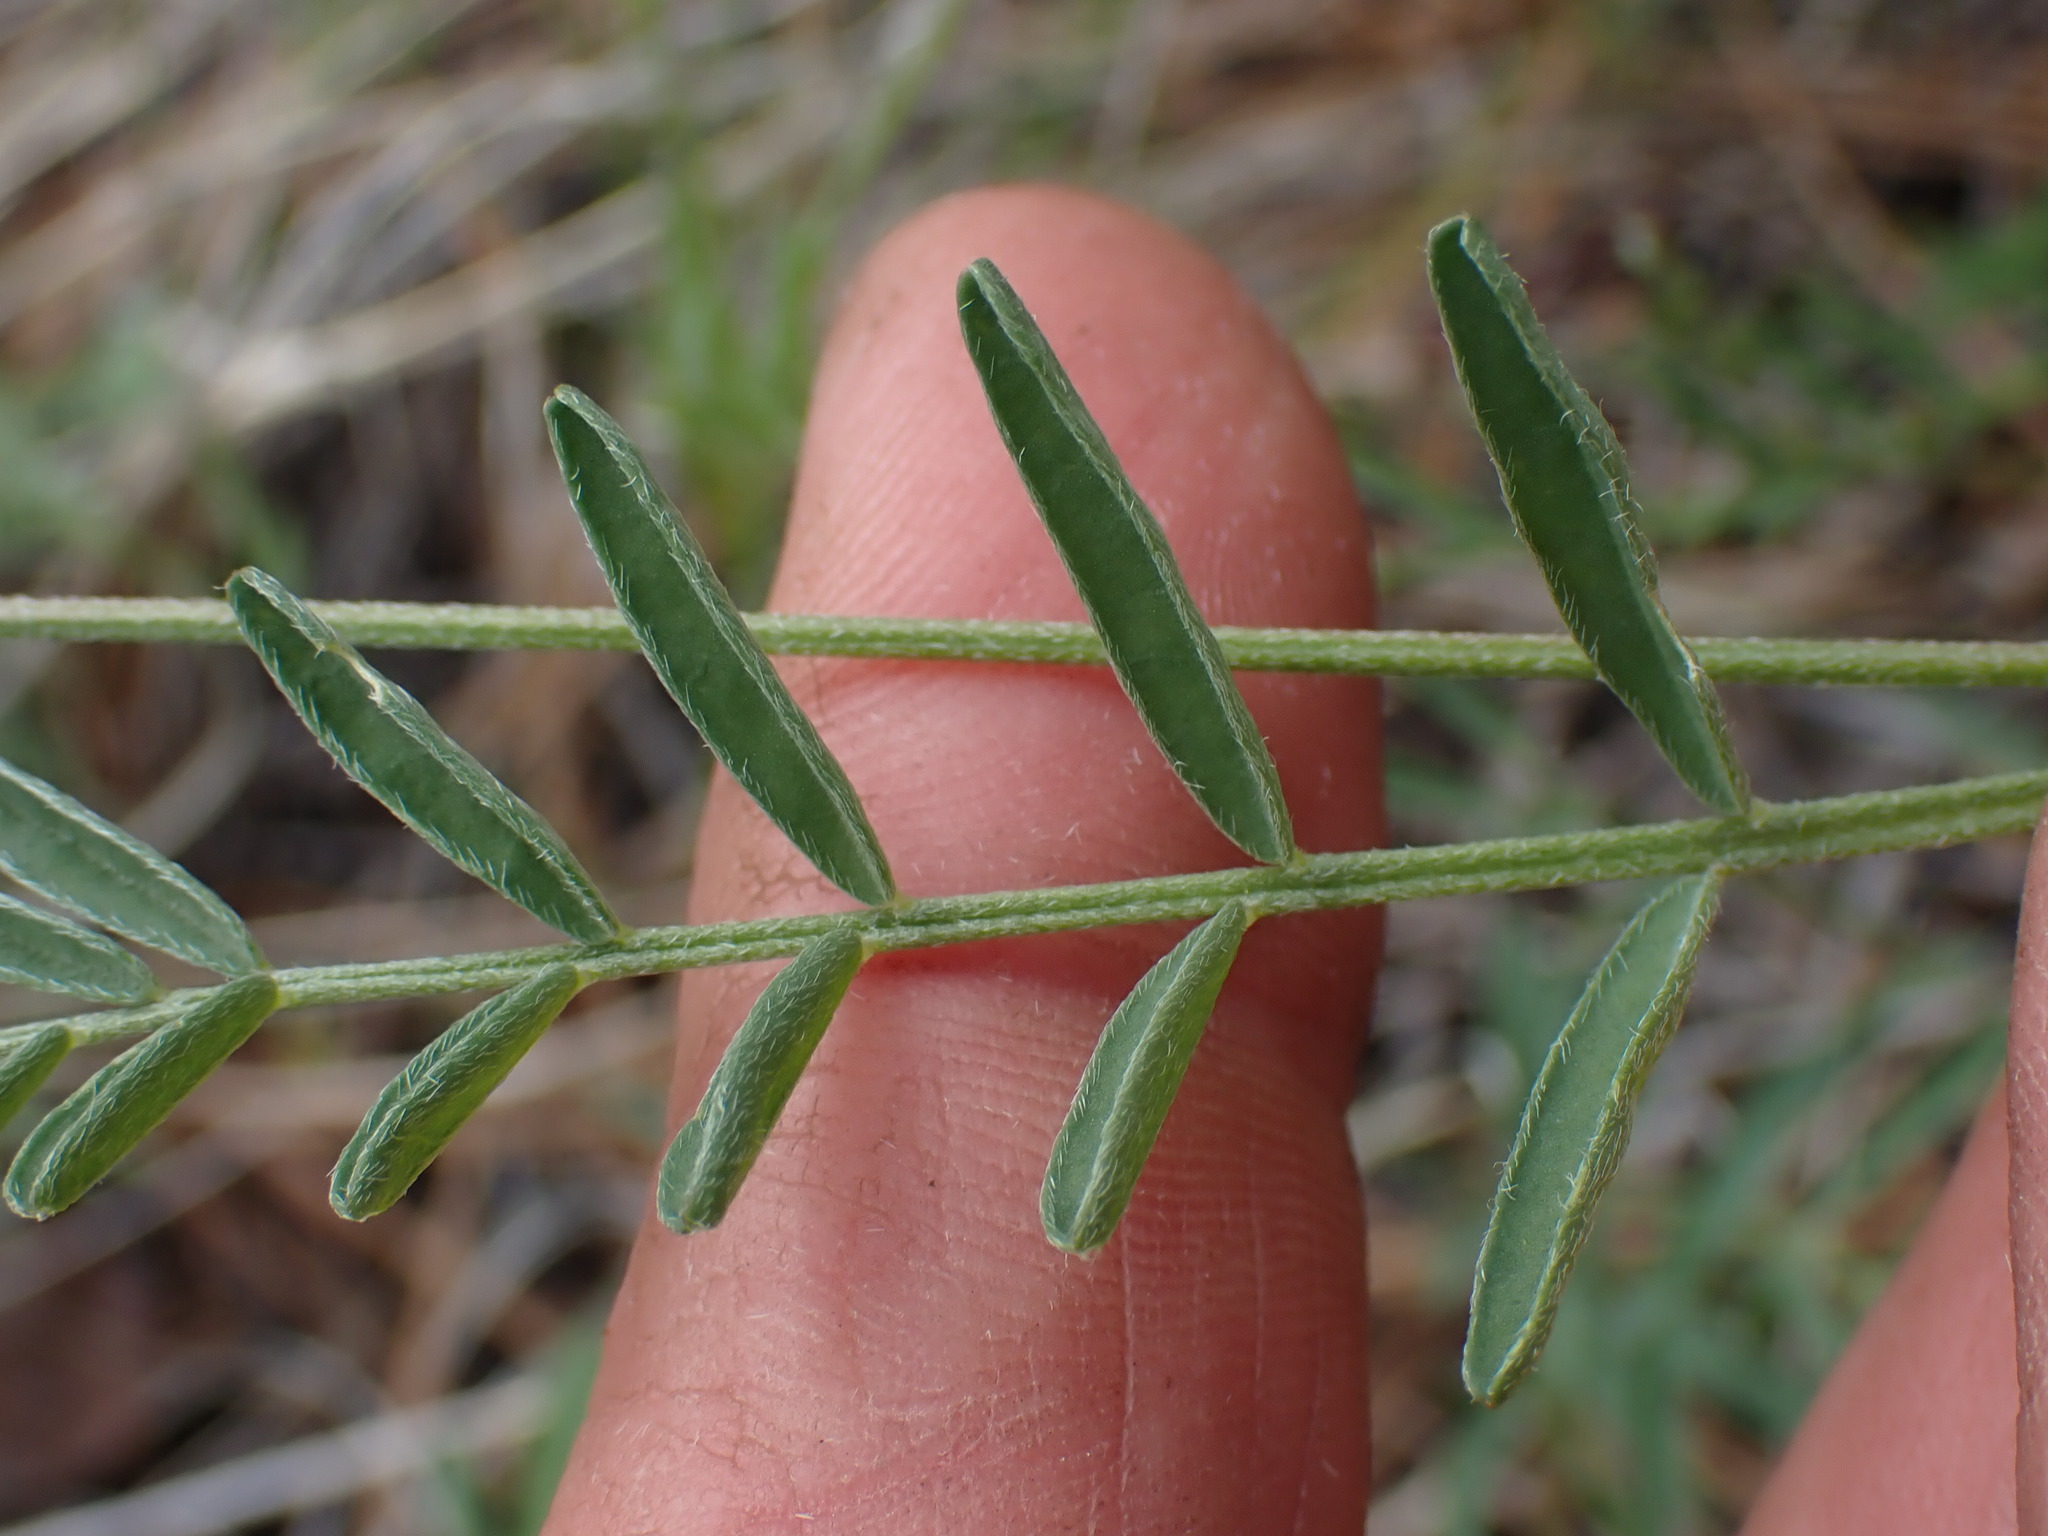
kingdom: Plantae
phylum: Tracheophyta
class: Magnoliopsida
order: Fabales
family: Fabaceae
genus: Astragalus
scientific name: Astragalus miser
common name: Timber milkvetch
